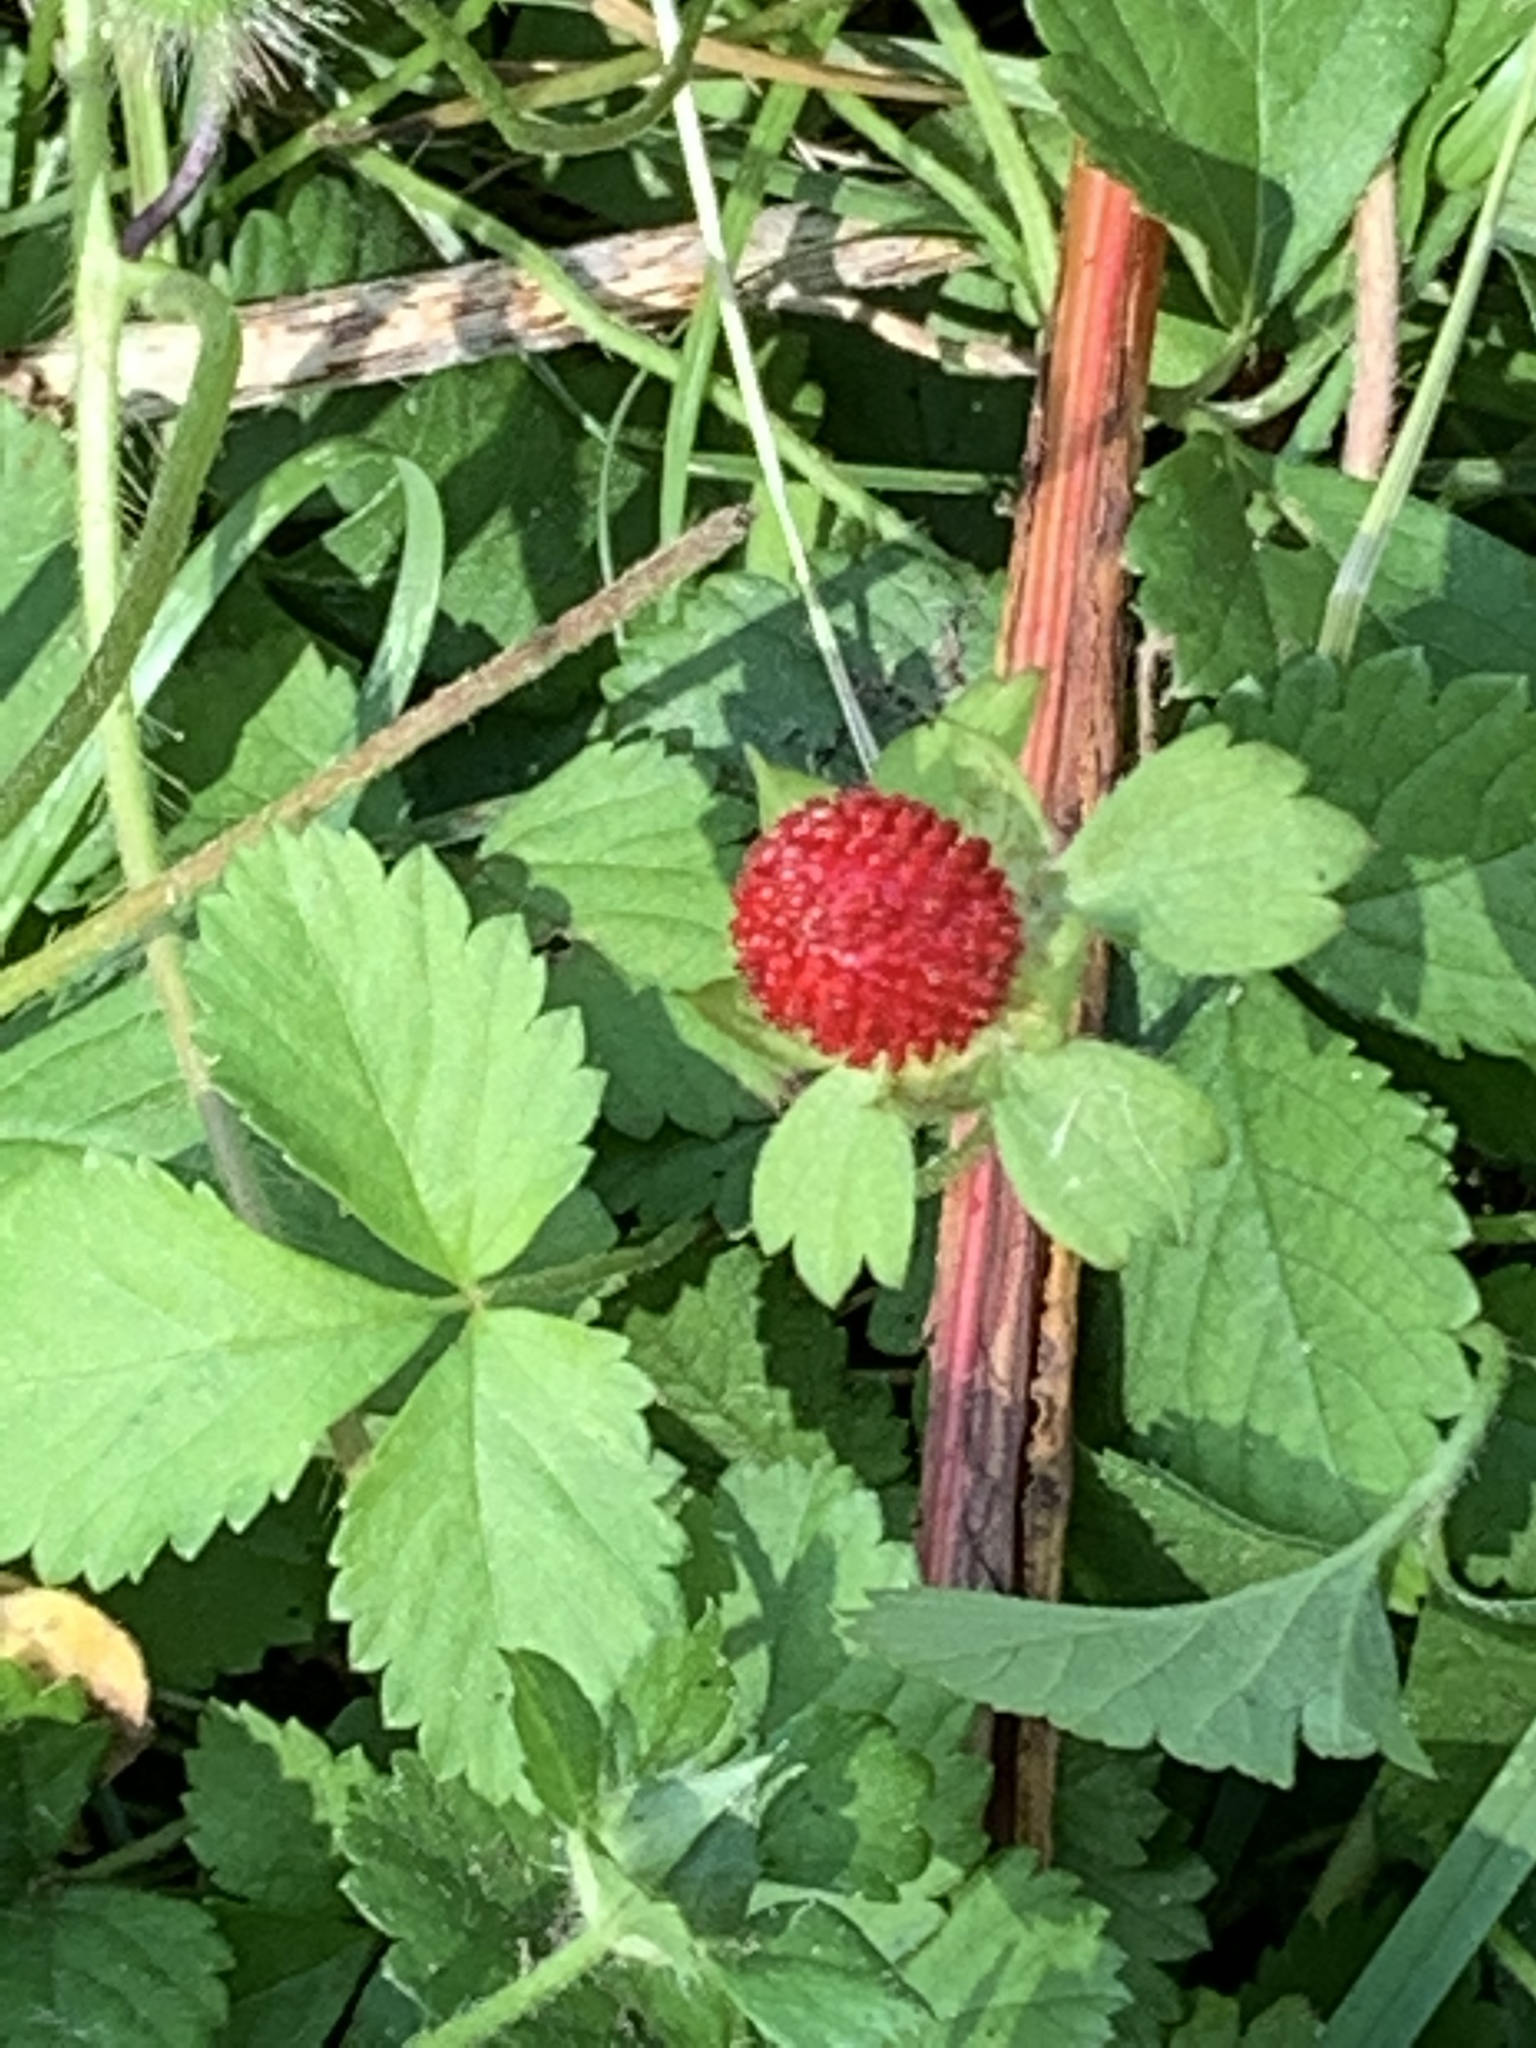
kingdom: Plantae
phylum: Tracheophyta
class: Magnoliopsida
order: Rosales
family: Rosaceae
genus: Potentilla
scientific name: Potentilla indica
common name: Yellow-flowered strawberry
